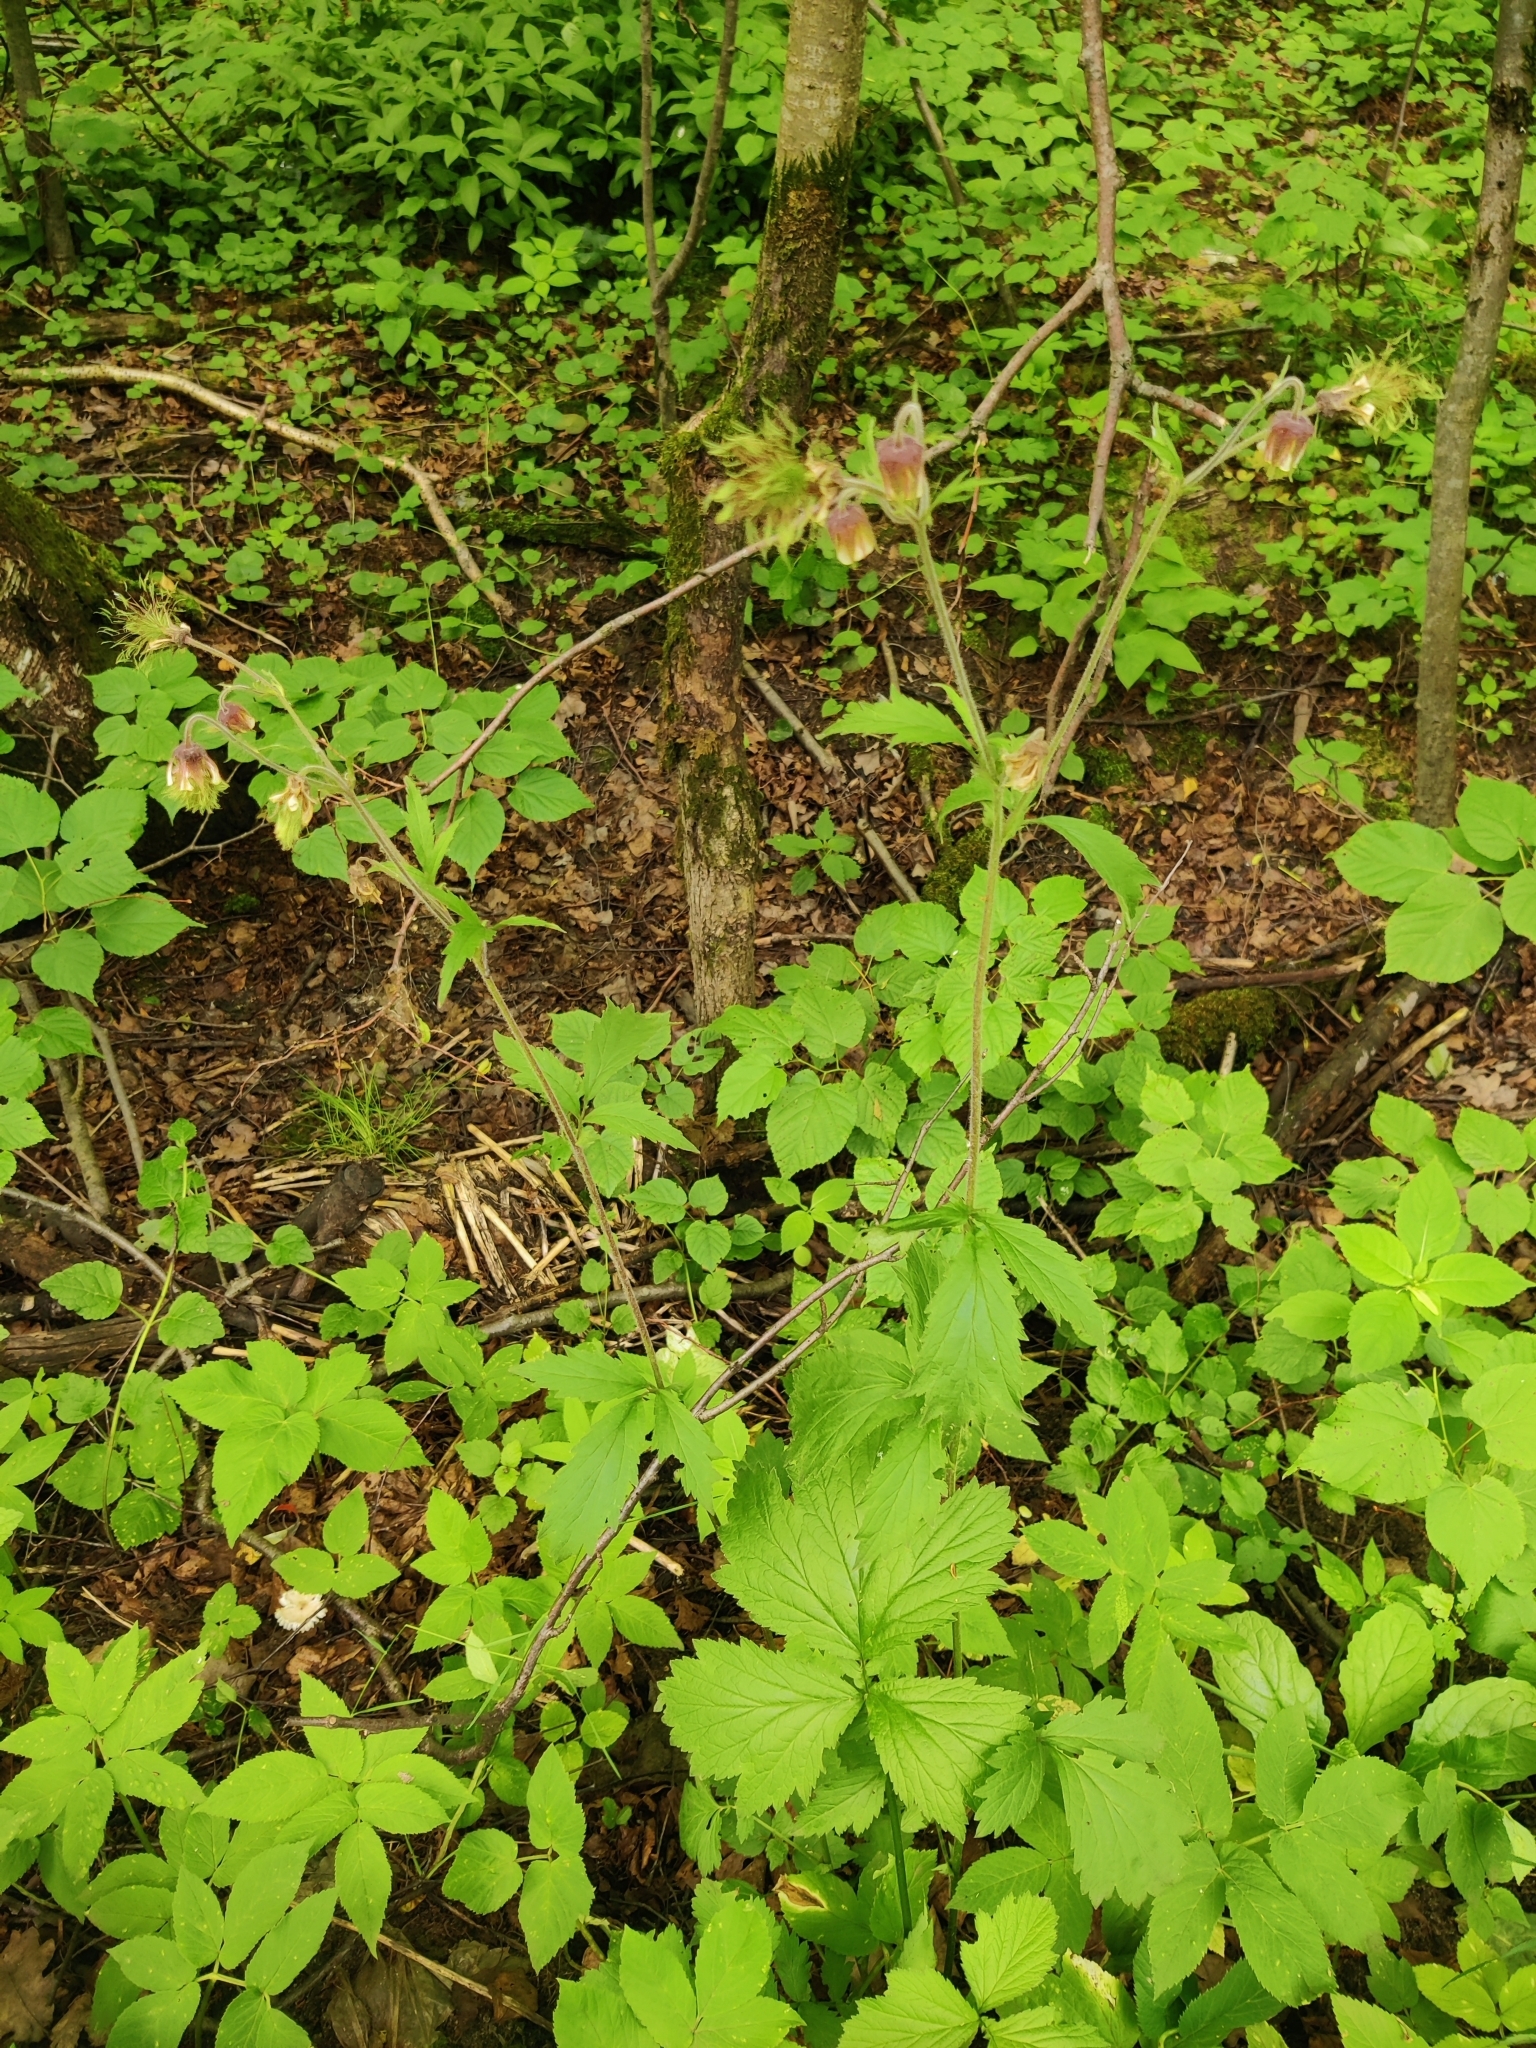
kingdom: Plantae
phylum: Tracheophyta
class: Magnoliopsida
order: Rosales
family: Rosaceae
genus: Geum
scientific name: Geum rivale
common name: Water avens
